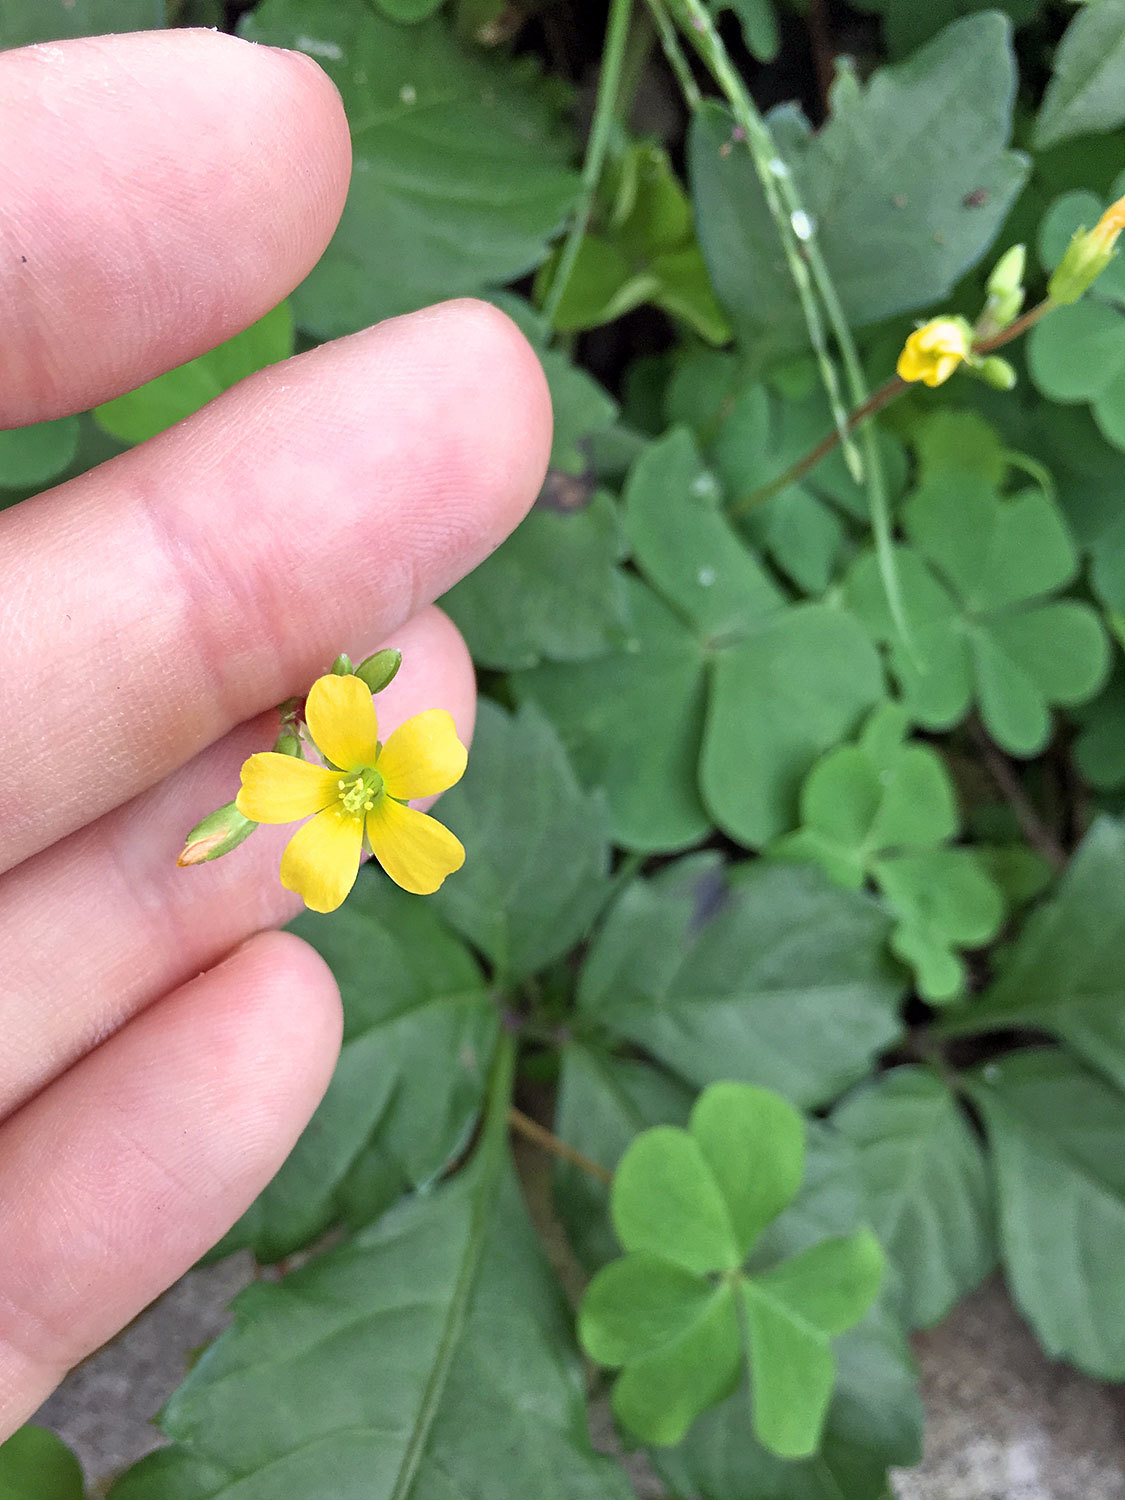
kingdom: Plantae
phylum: Tracheophyta
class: Magnoliopsida
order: Oxalidales
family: Oxalidaceae
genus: Oxalis
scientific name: Oxalis corniculata
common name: Procumbent yellow-sorrel
